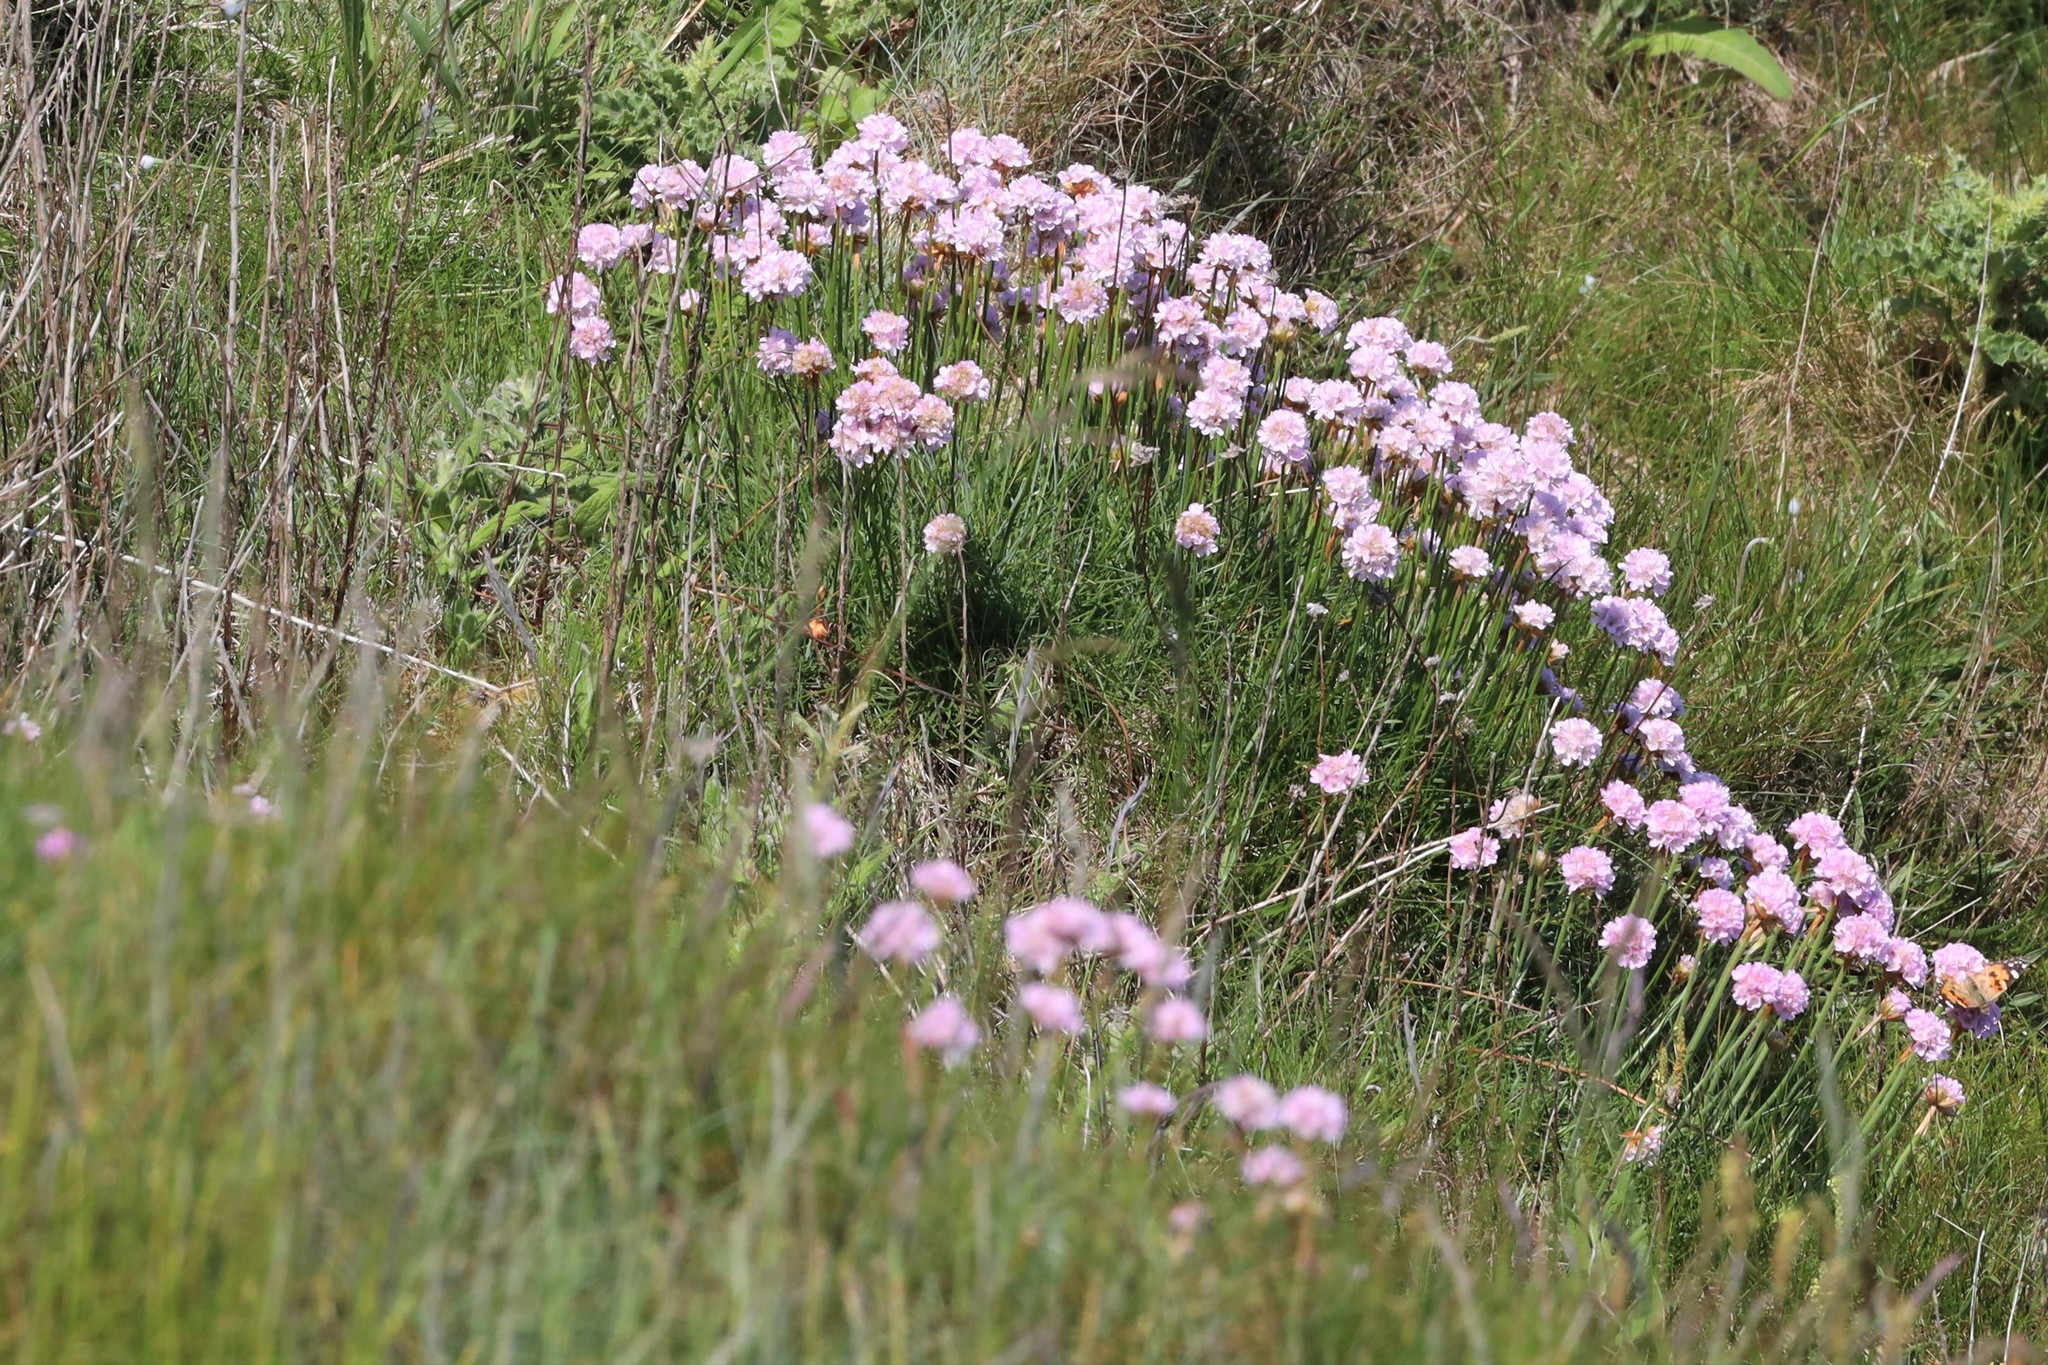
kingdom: Plantae
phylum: Tracheophyta
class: Magnoliopsida
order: Caryophyllales
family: Plumbaginaceae
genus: Armeria
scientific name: Armeria maritima
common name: Thrift
